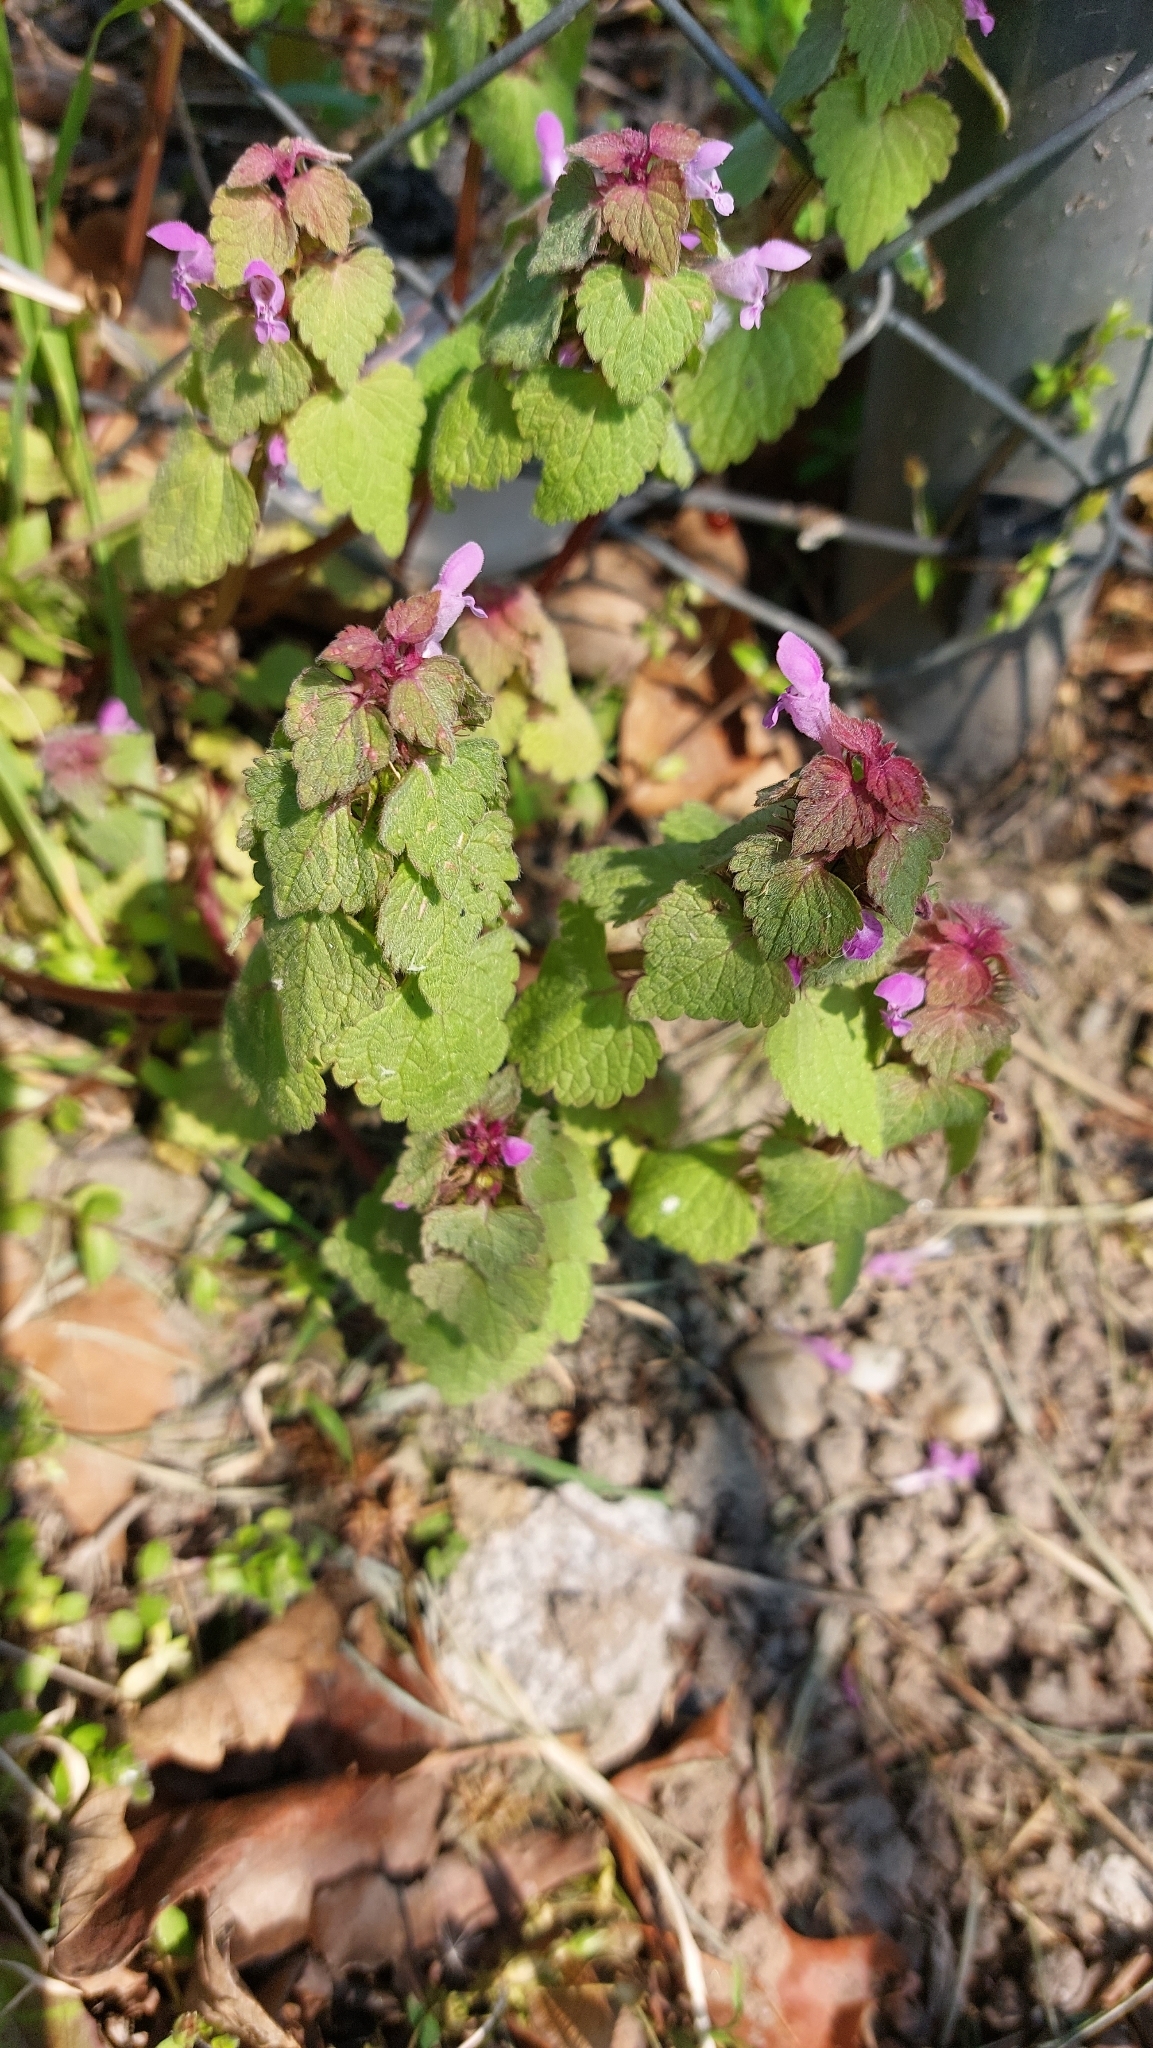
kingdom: Plantae
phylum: Tracheophyta
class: Magnoliopsida
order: Lamiales
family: Lamiaceae
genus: Lamium
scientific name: Lamium purpureum
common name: Red dead-nettle
